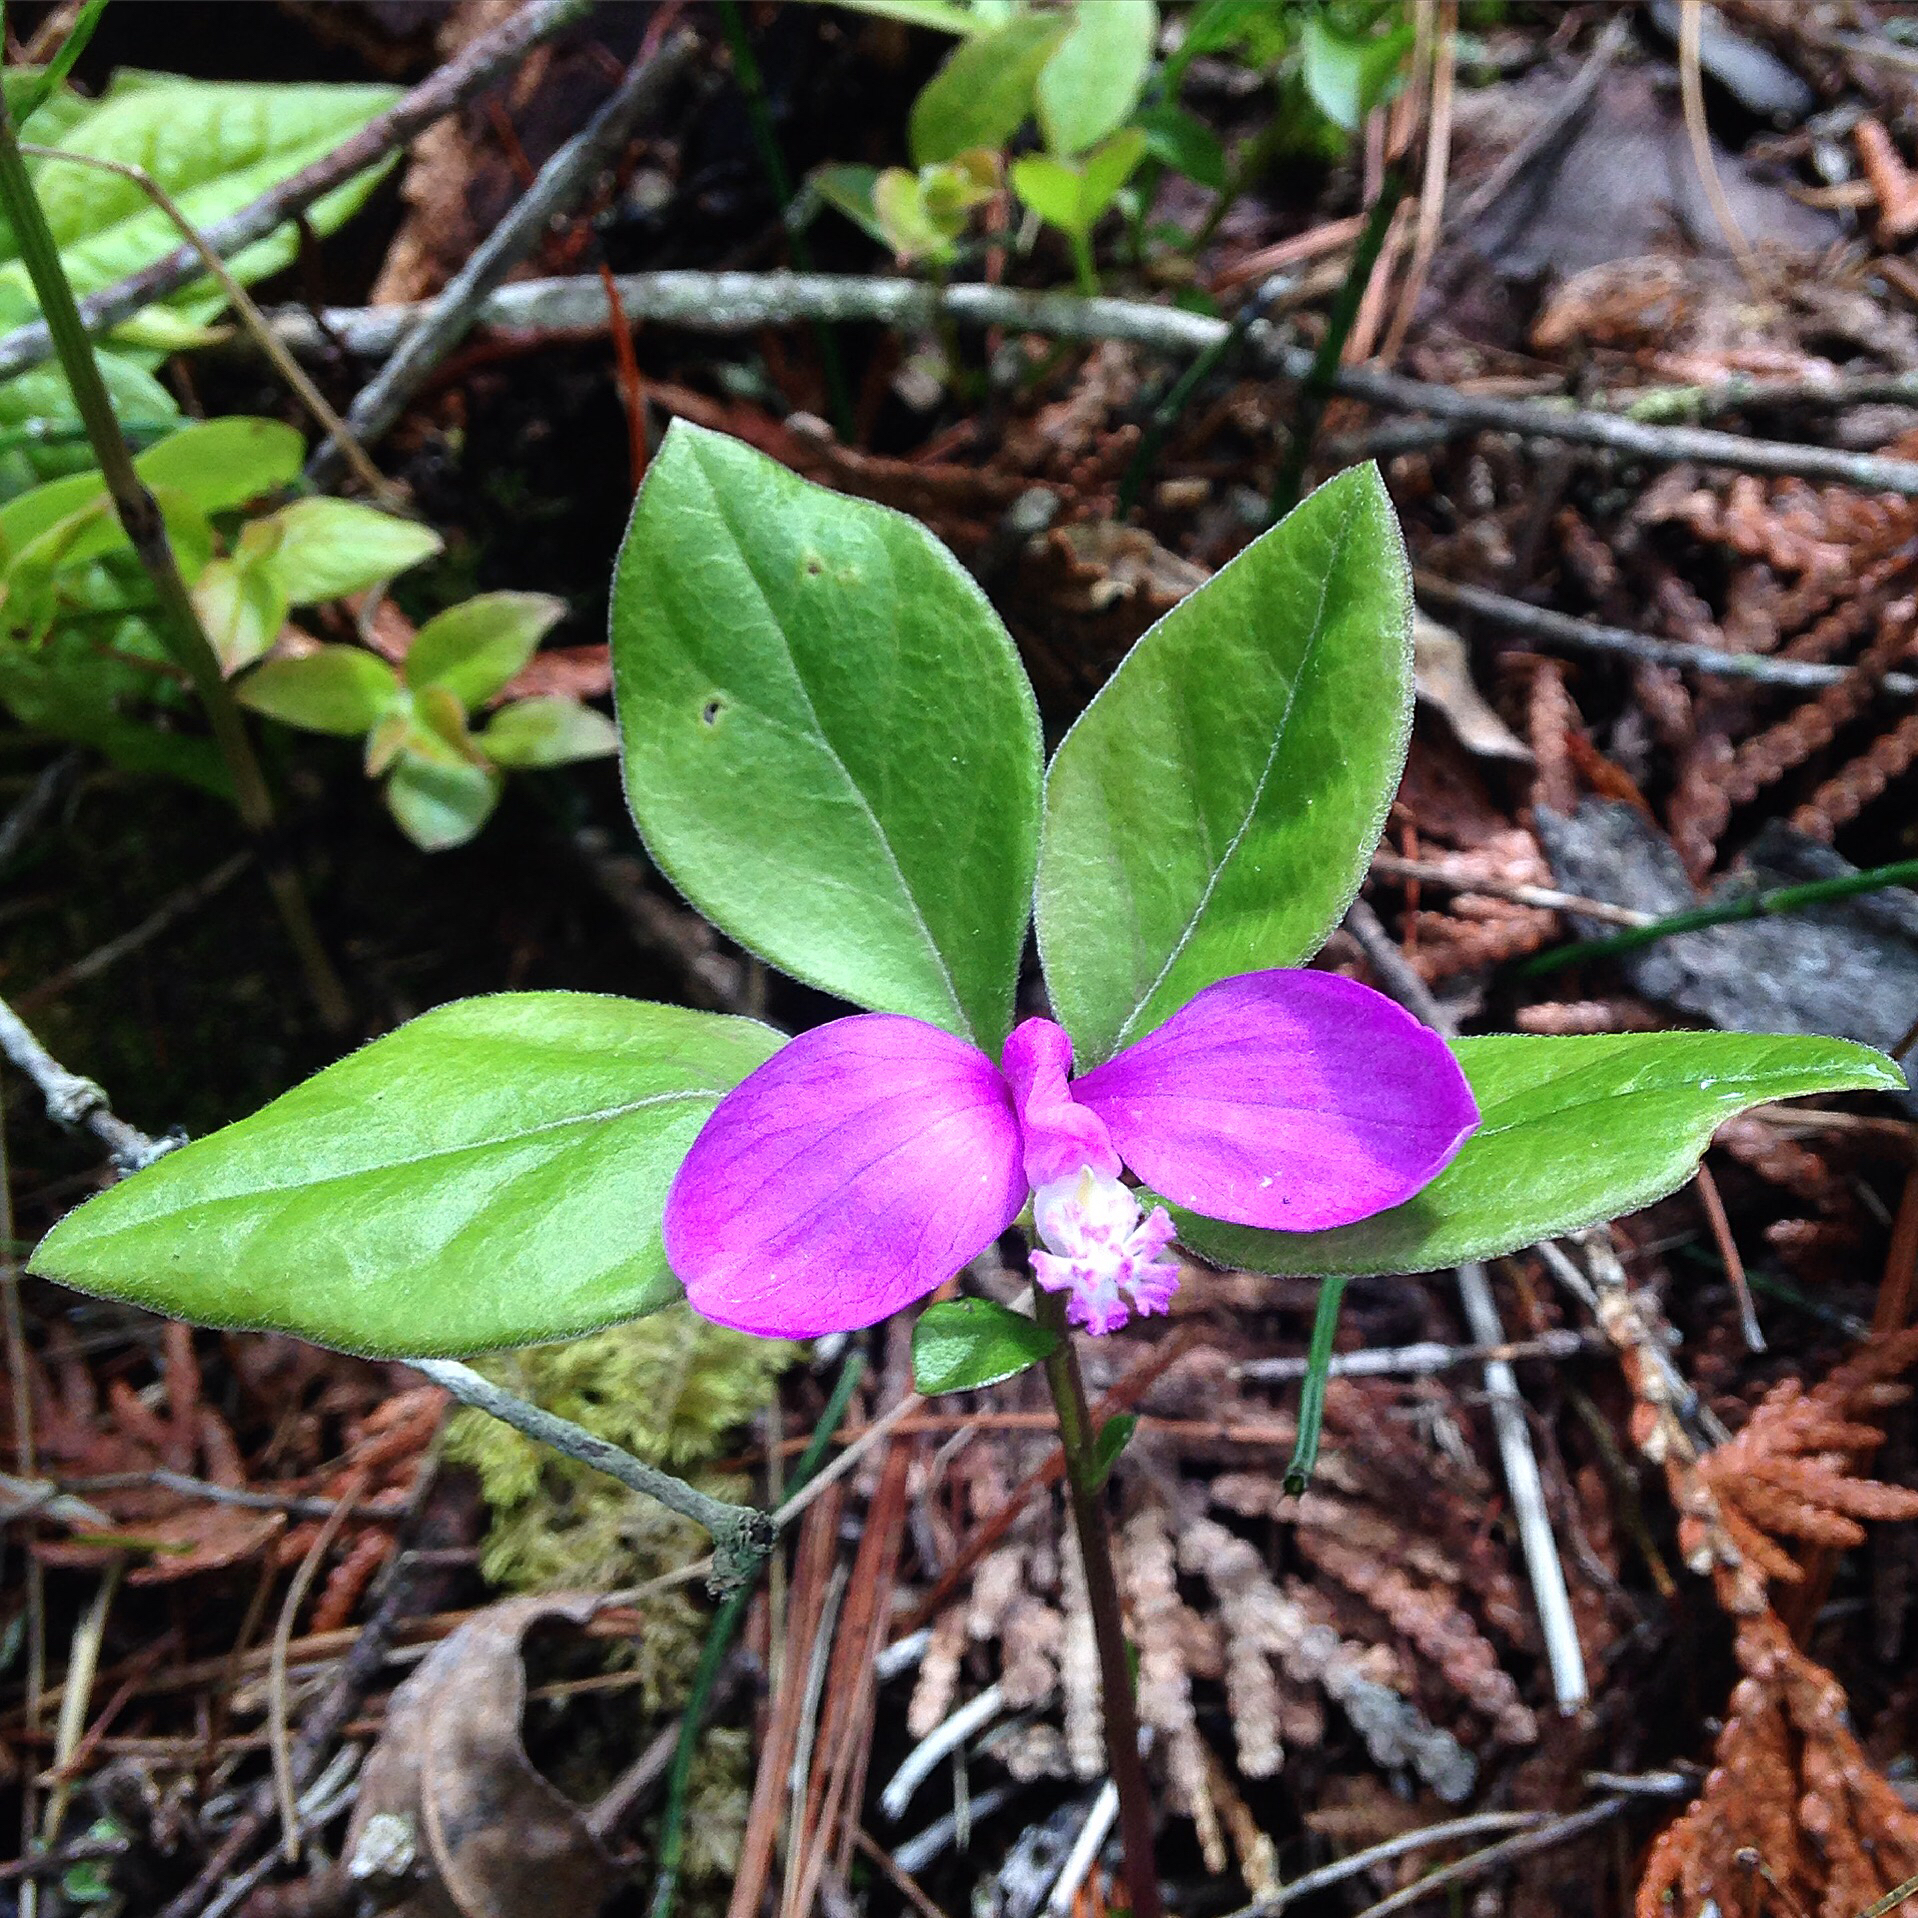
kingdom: Plantae
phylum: Tracheophyta
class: Magnoliopsida
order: Fabales
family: Polygalaceae
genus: Polygaloides
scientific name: Polygaloides paucifolia
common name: Bird-on-the-wing
